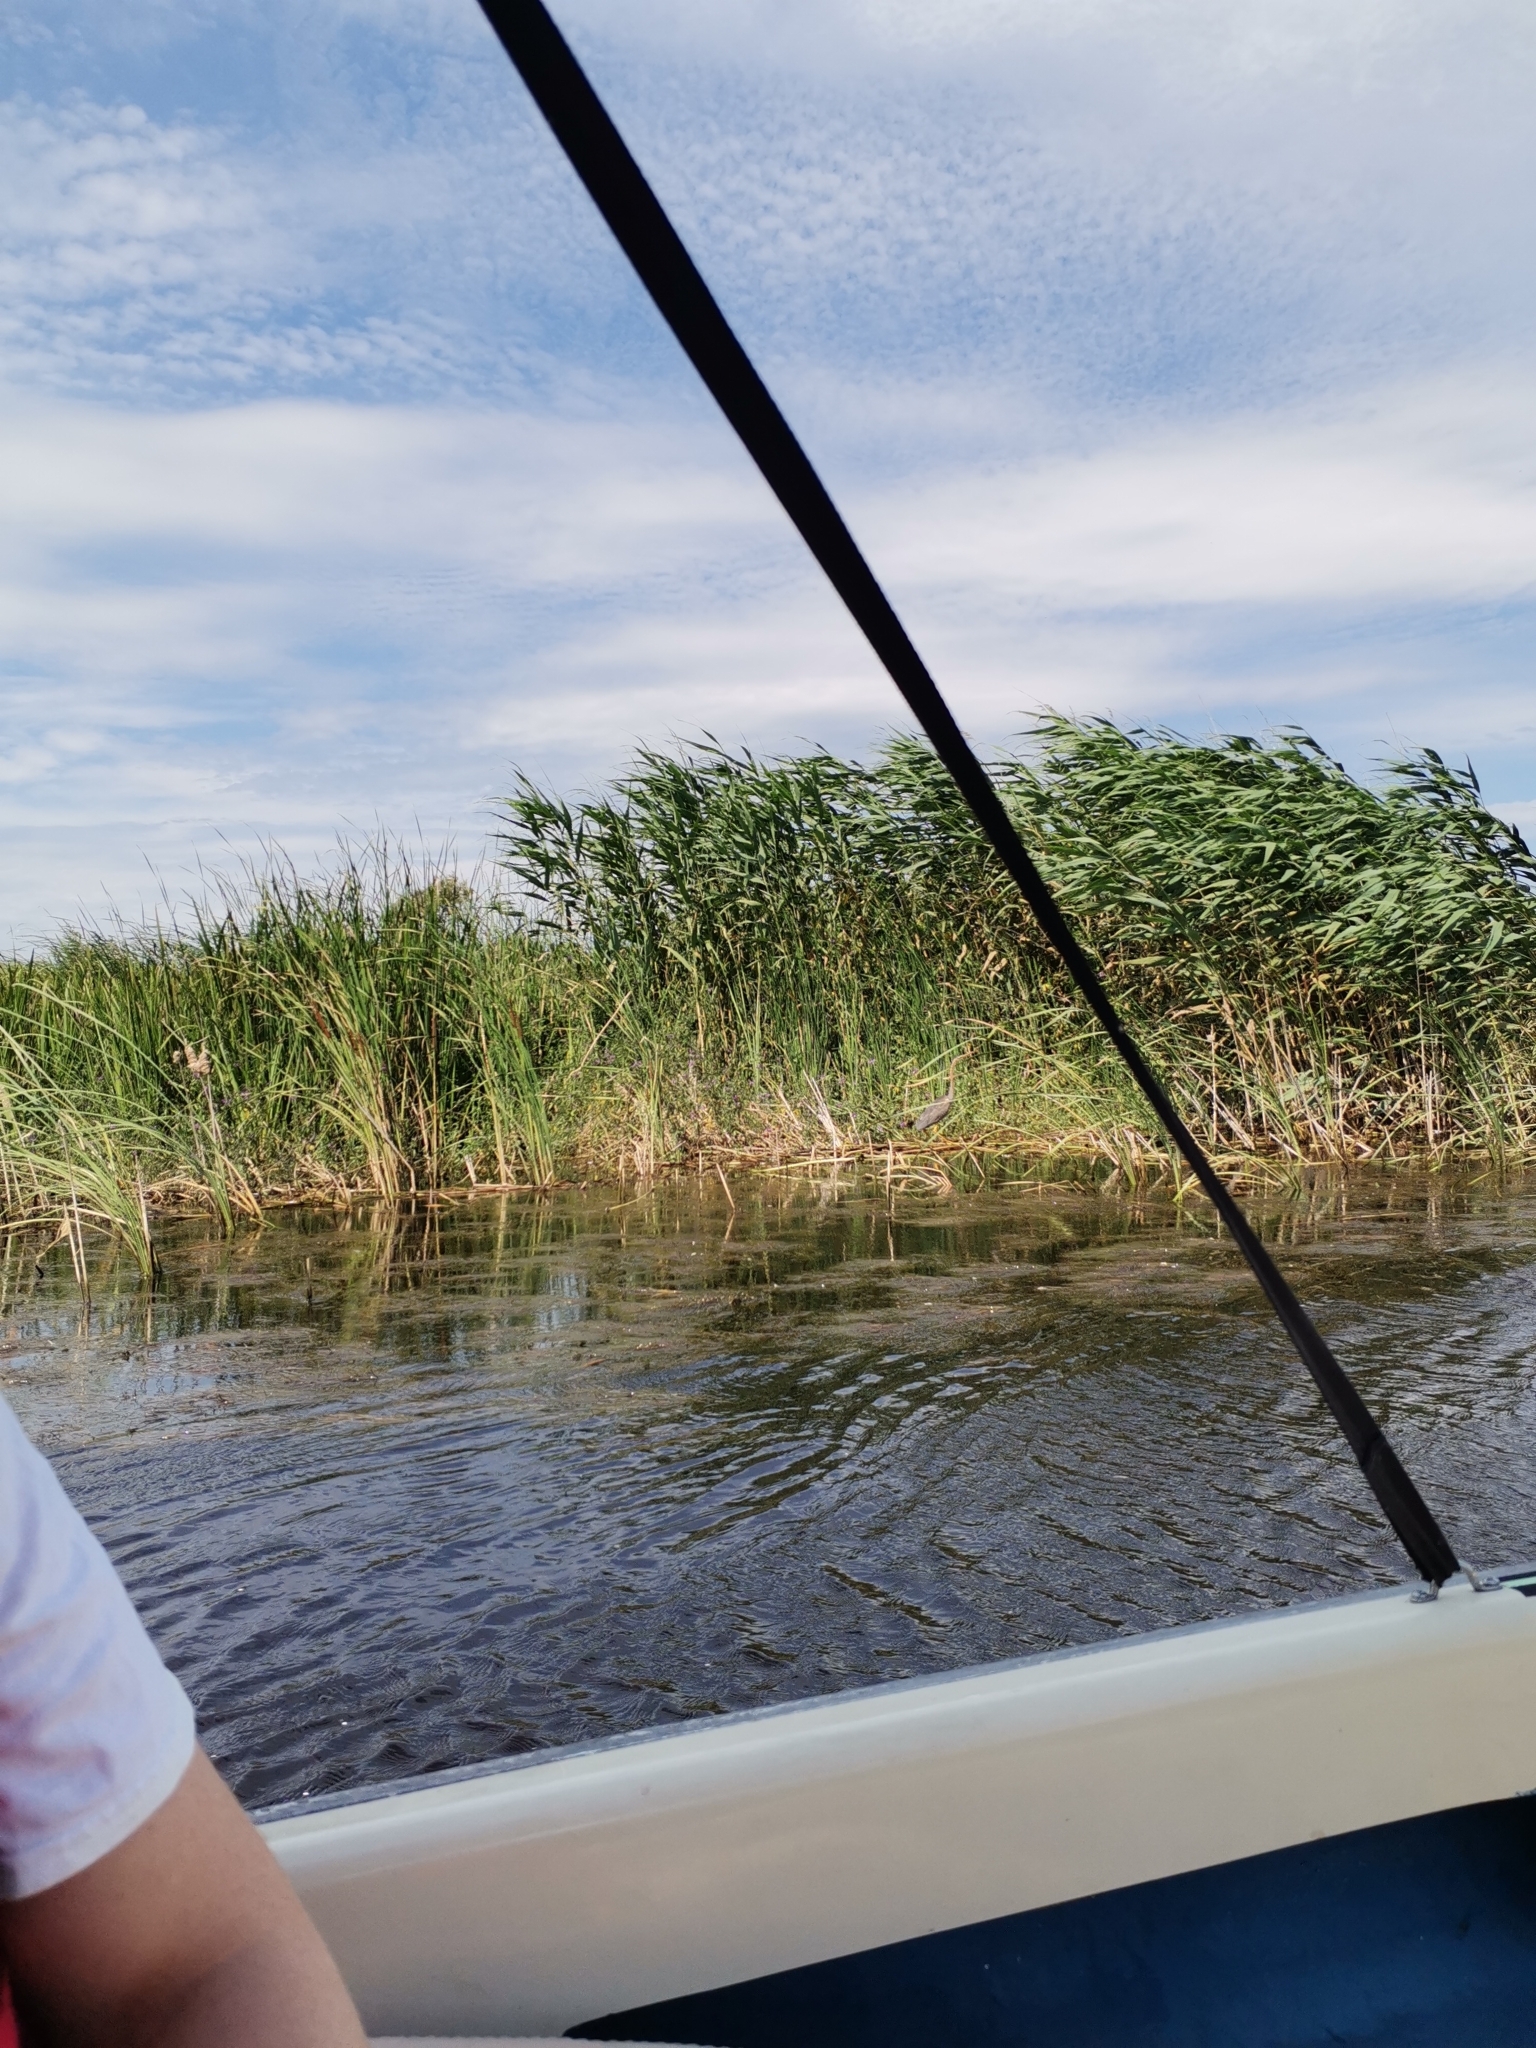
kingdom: Animalia
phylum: Chordata
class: Aves
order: Pelecaniformes
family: Ardeidae
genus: Ardea
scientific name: Ardea purpurea
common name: Purple heron
